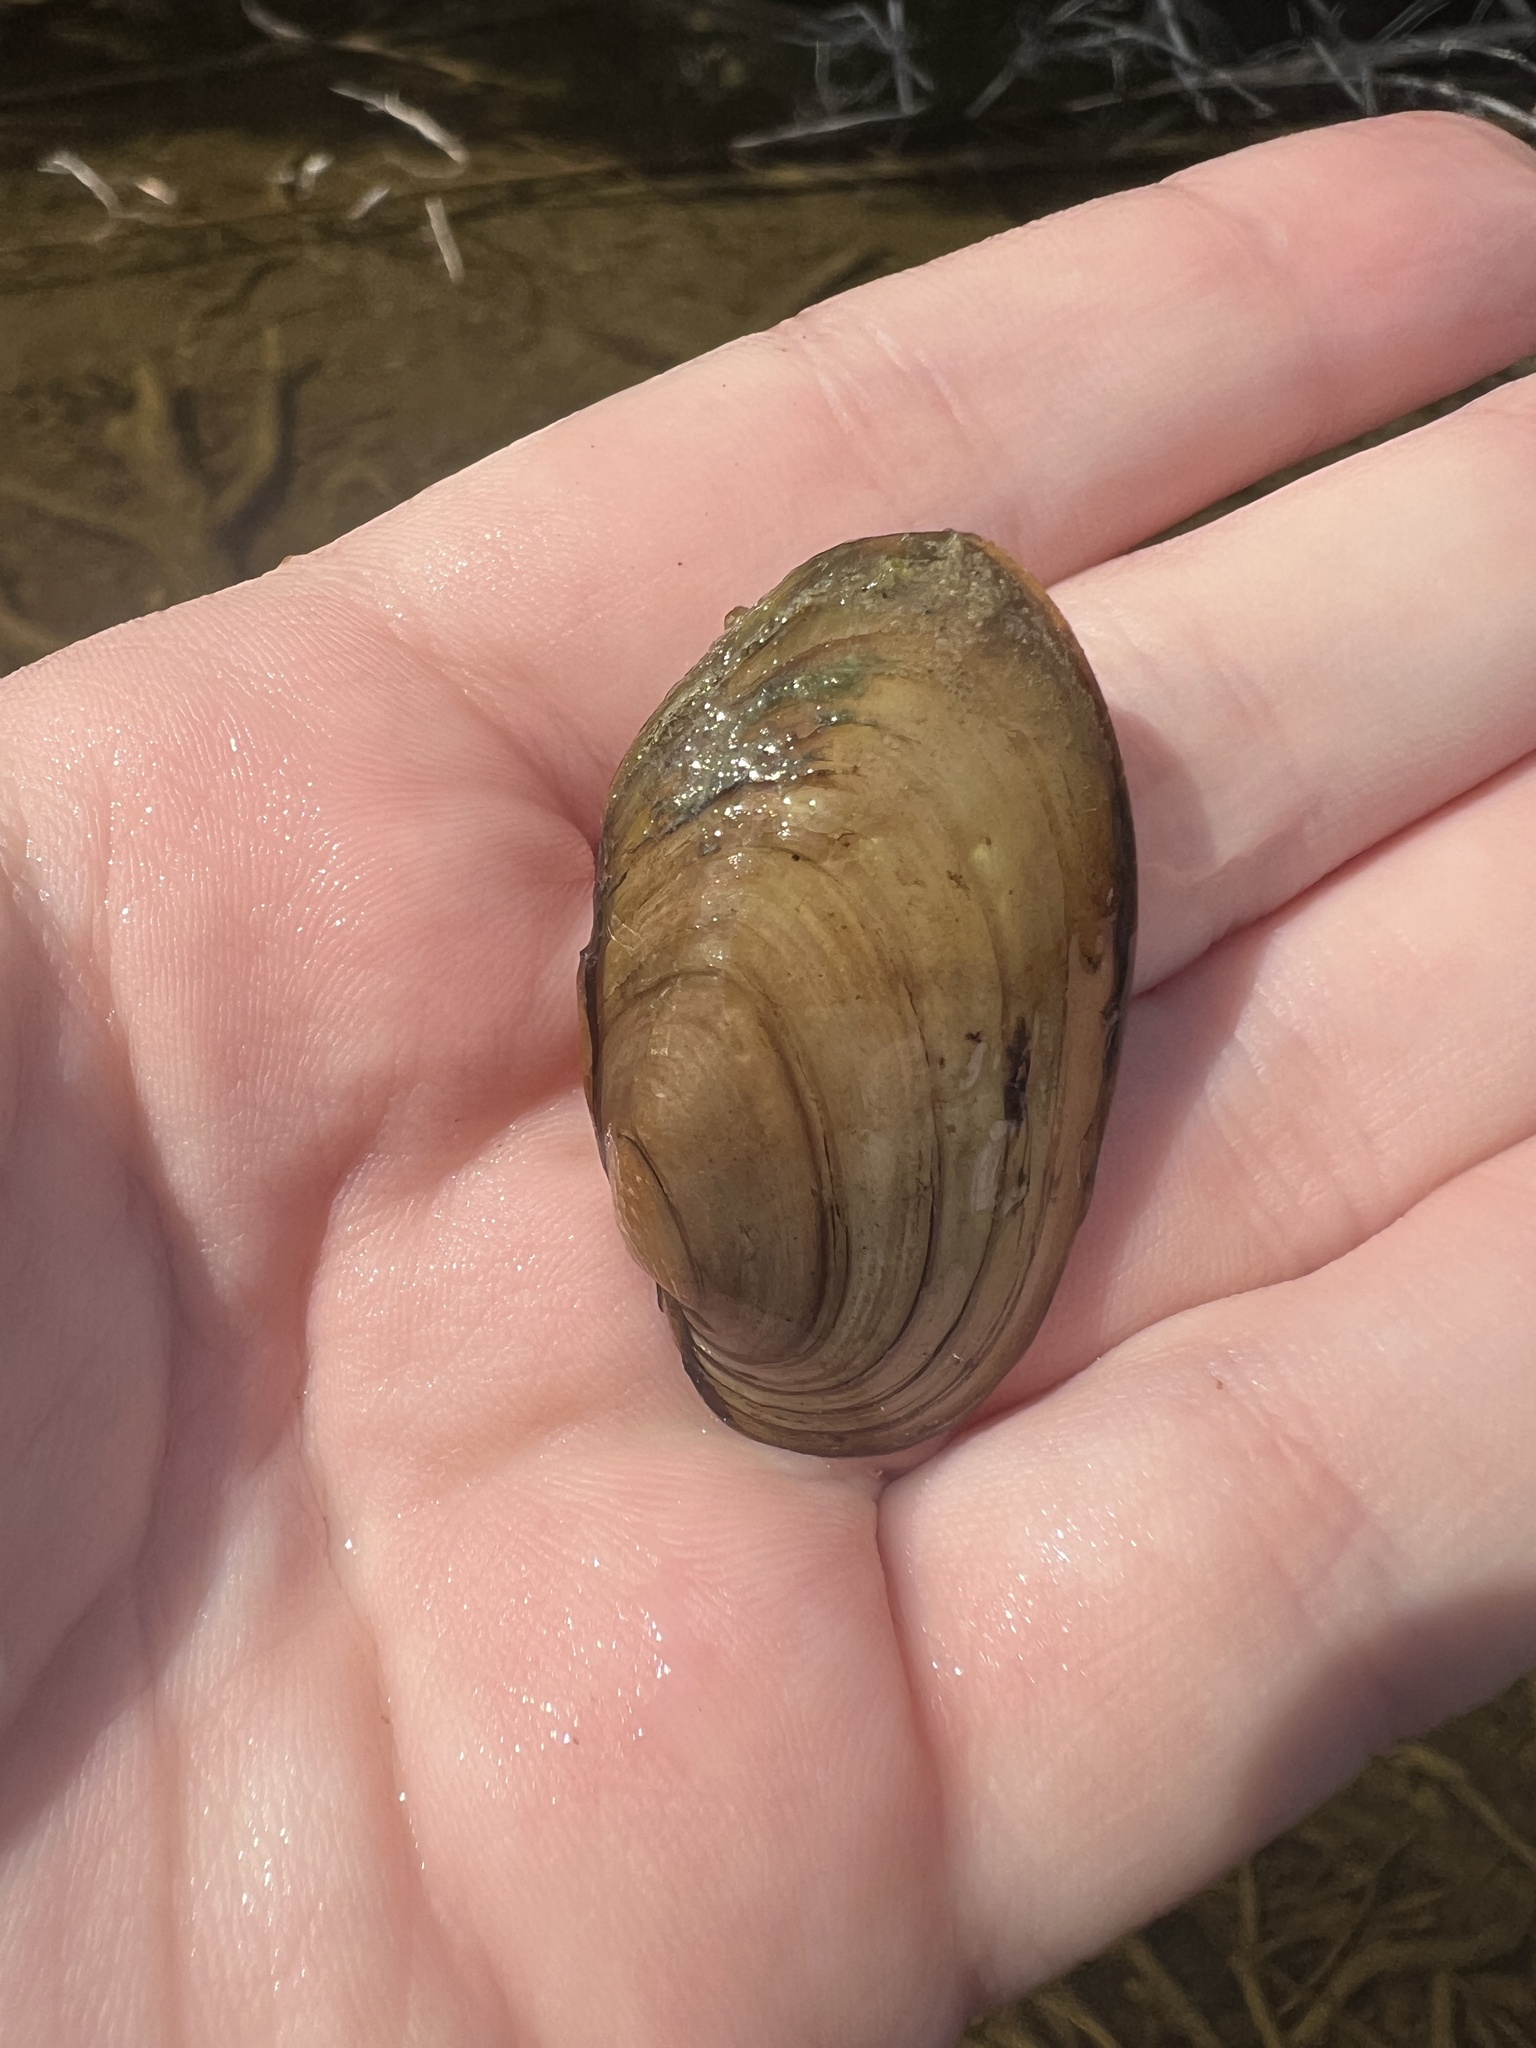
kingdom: Animalia
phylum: Mollusca
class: Bivalvia
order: Unionida
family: Unionidae
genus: Lampsilis
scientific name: Lampsilis siliquoidea
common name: Fatmucket
